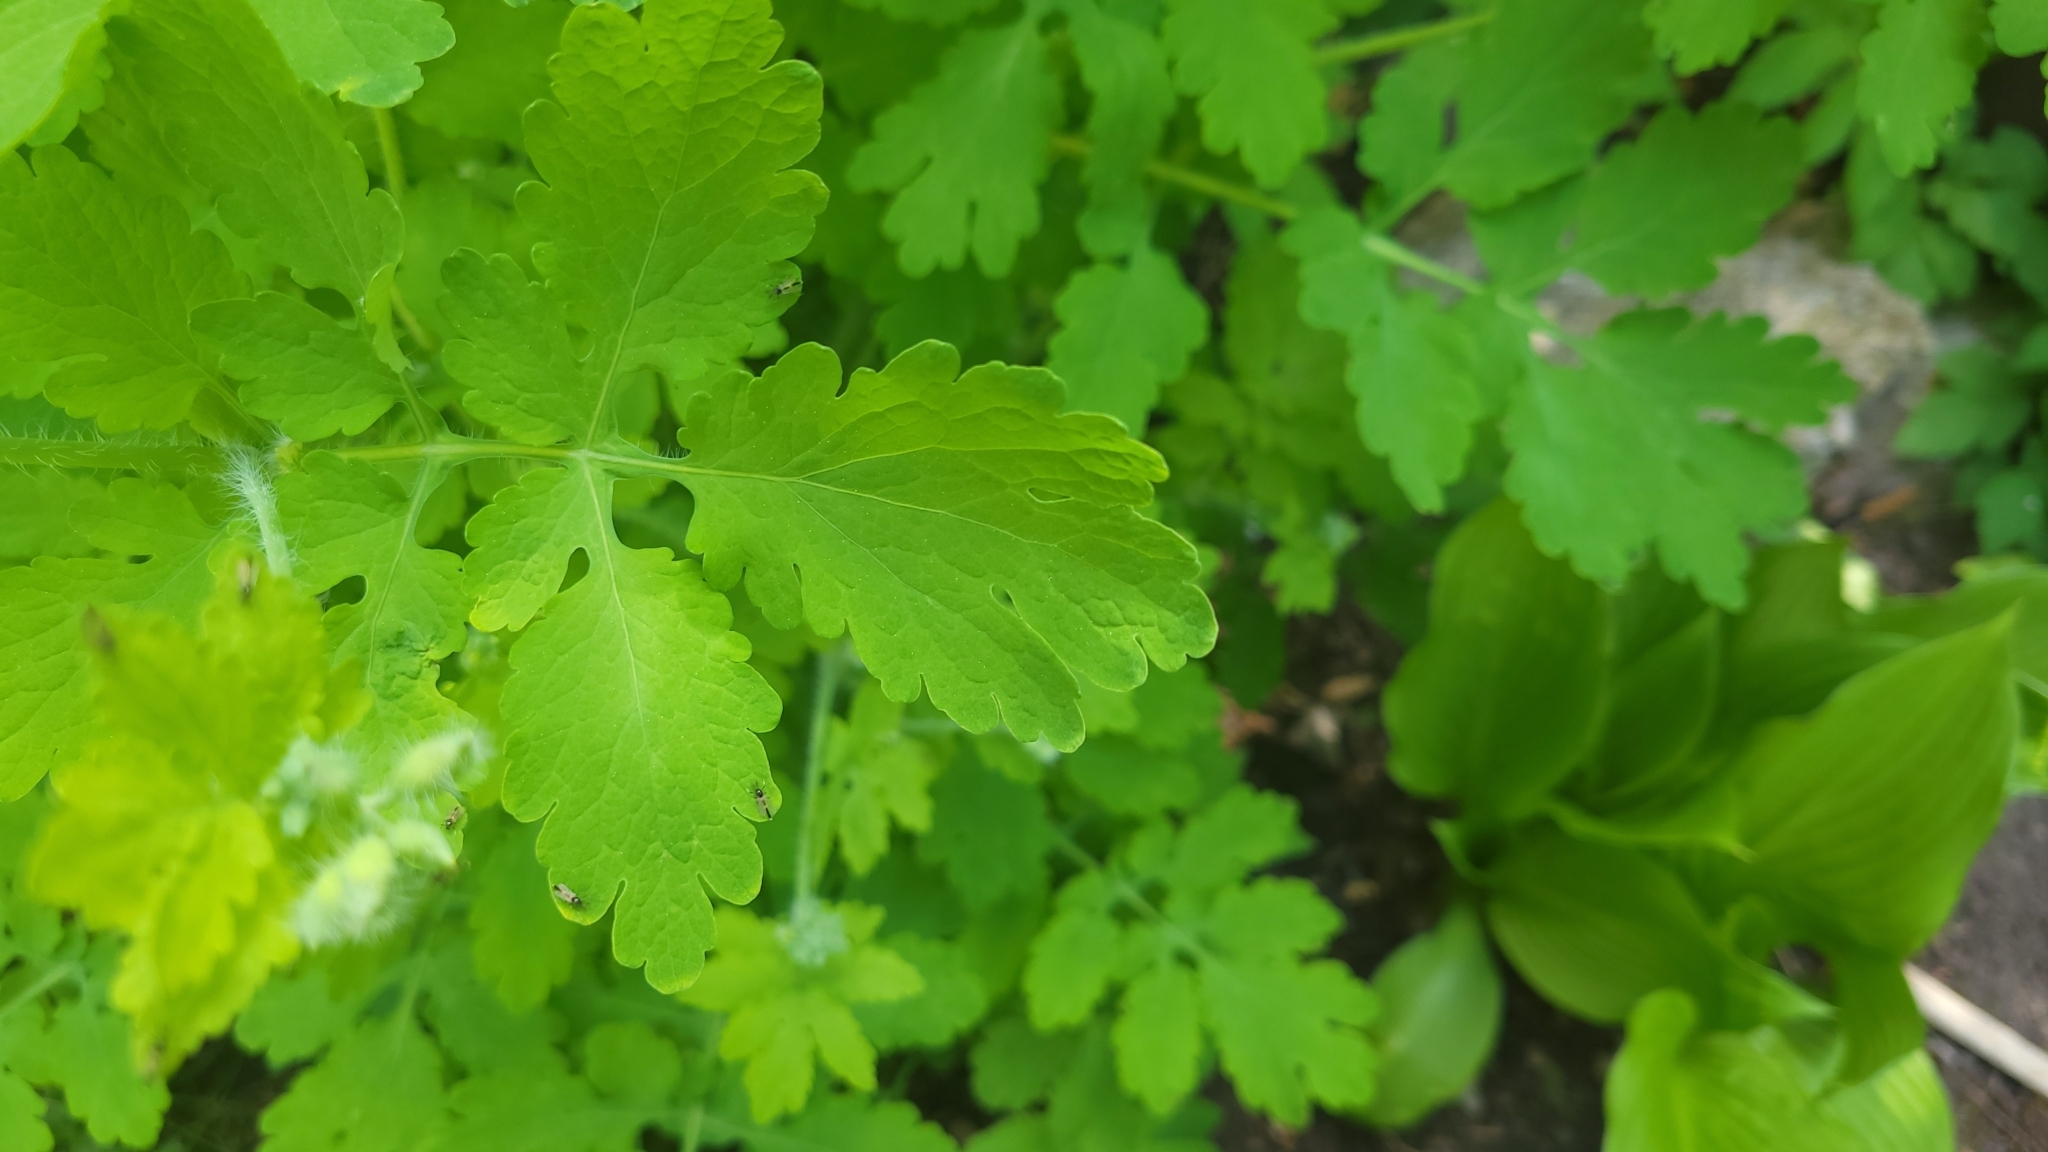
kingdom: Plantae
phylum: Tracheophyta
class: Magnoliopsida
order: Ranunculales
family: Papaveraceae
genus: Chelidonium
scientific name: Chelidonium majus
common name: Greater celandine
